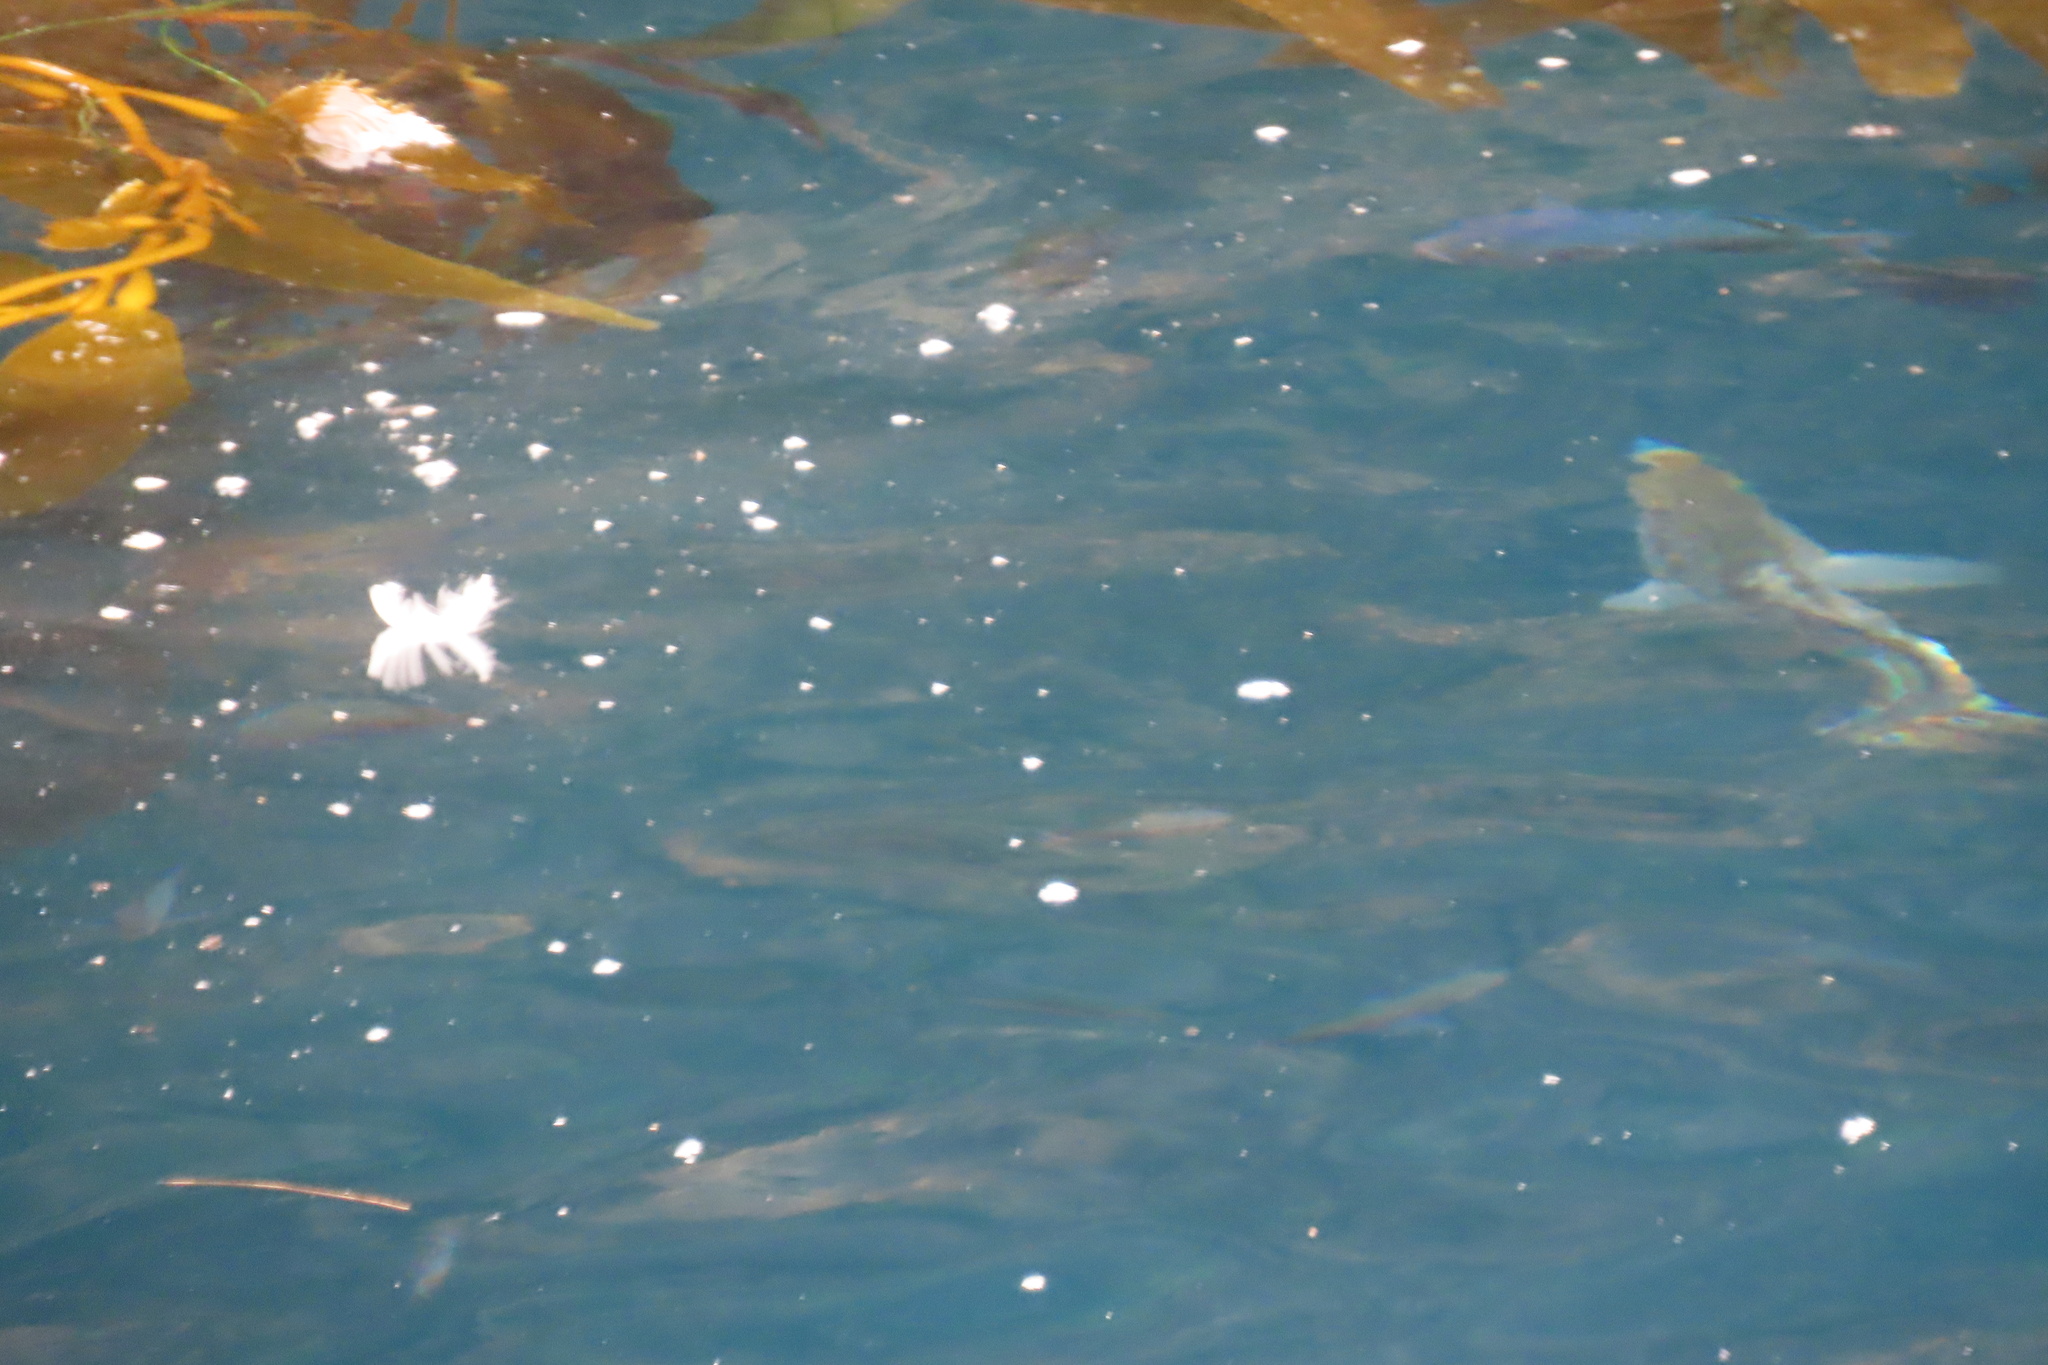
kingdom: Animalia
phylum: Chordata
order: Perciformes
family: Kyphosidae
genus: Girella
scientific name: Girella nigricans
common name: Opaleye
